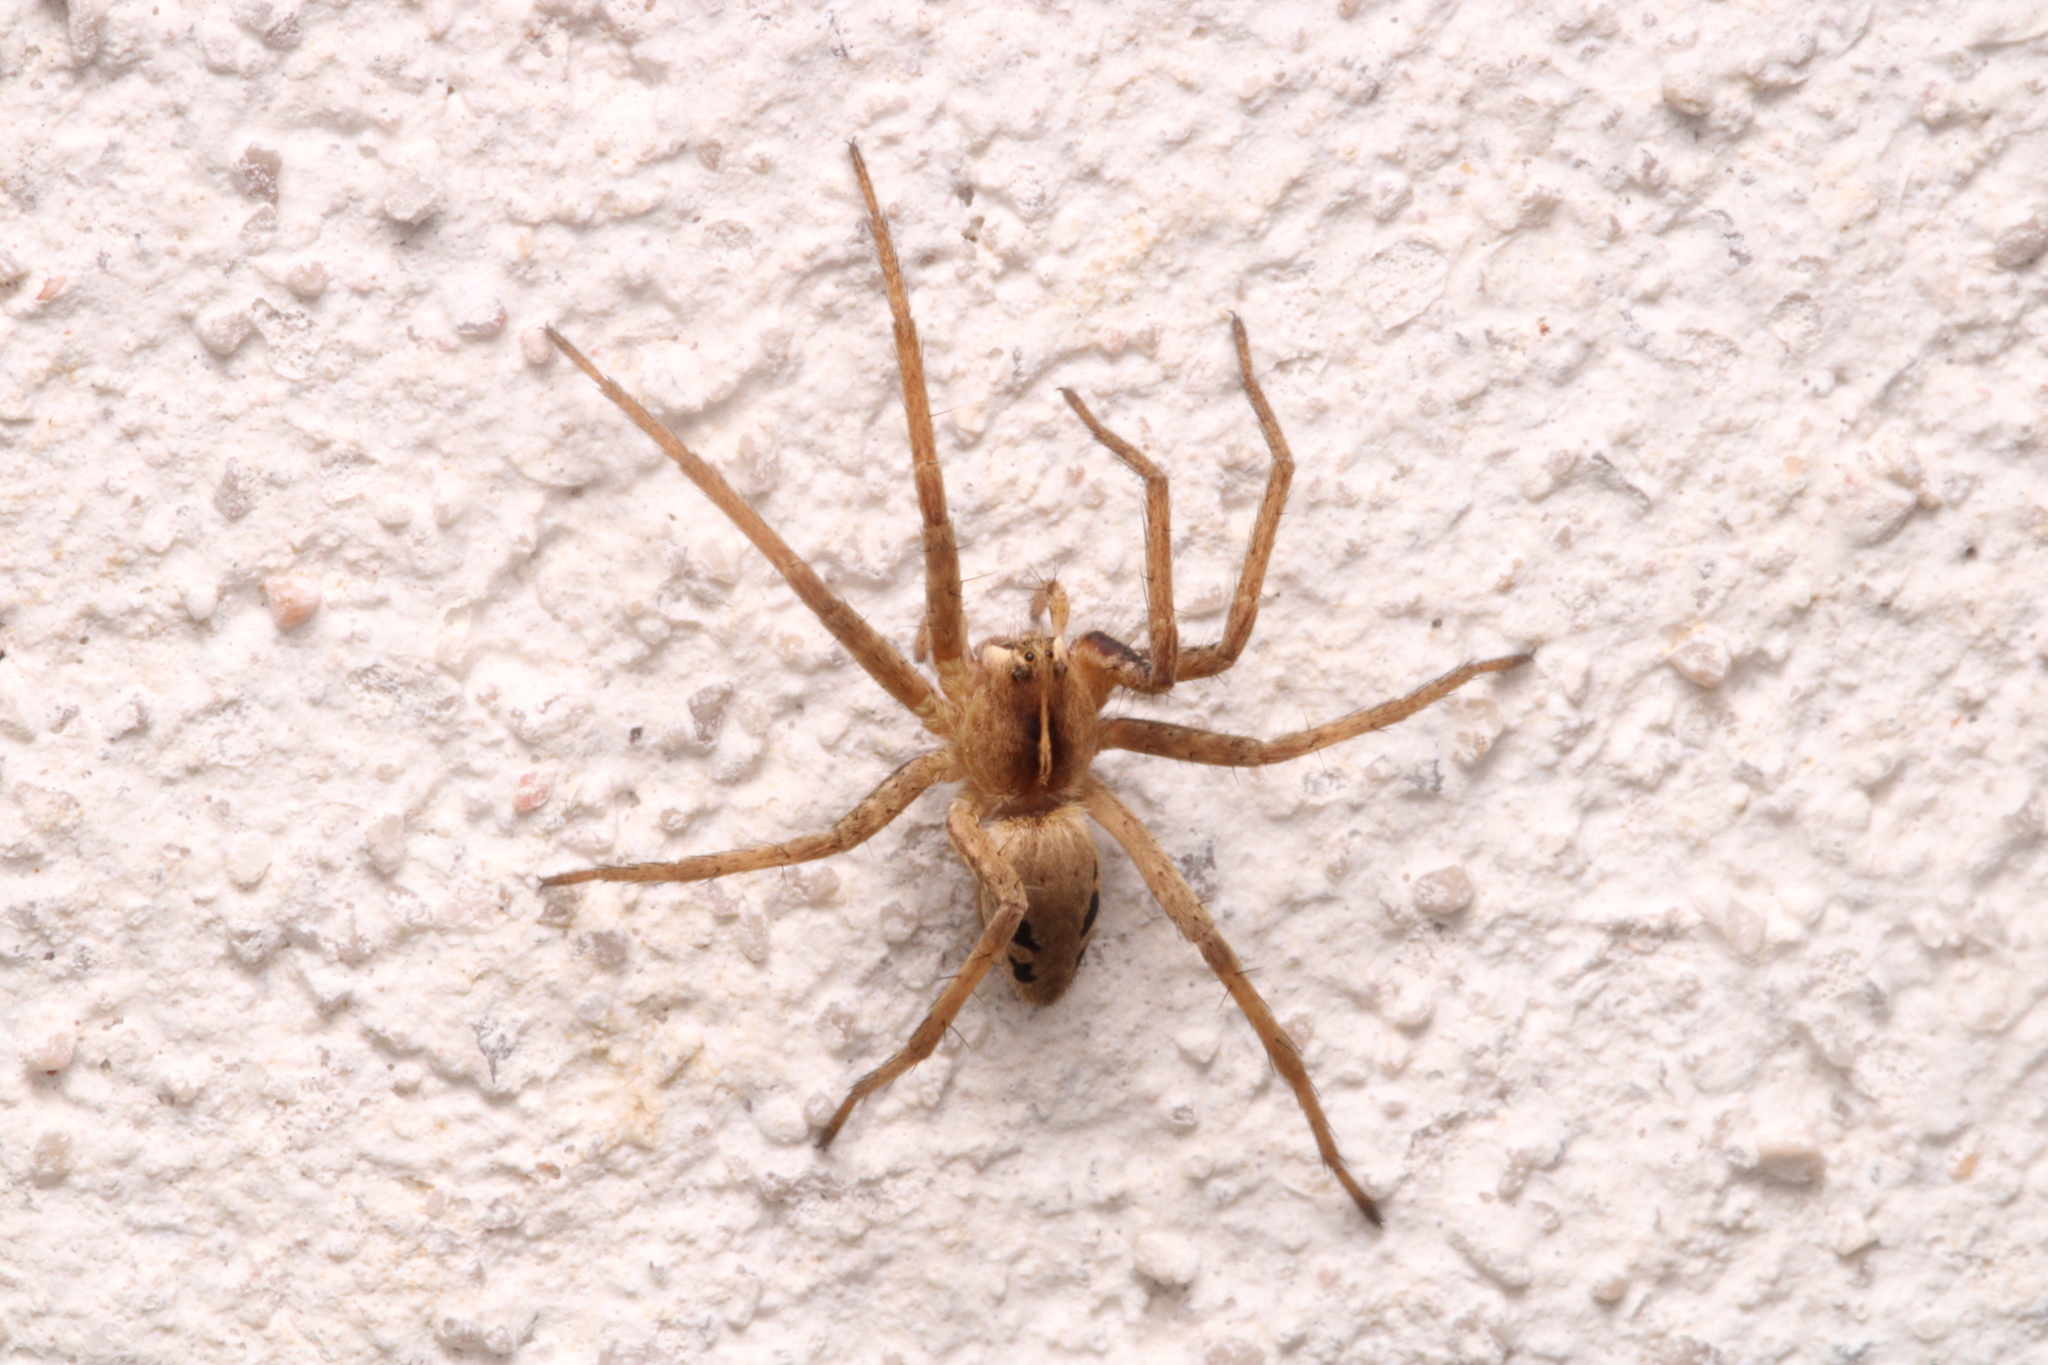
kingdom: Animalia
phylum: Arthropoda
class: Arachnida
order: Araneae
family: Pisauridae
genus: Pisaura
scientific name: Pisaura mirabilis
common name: Tent spider
